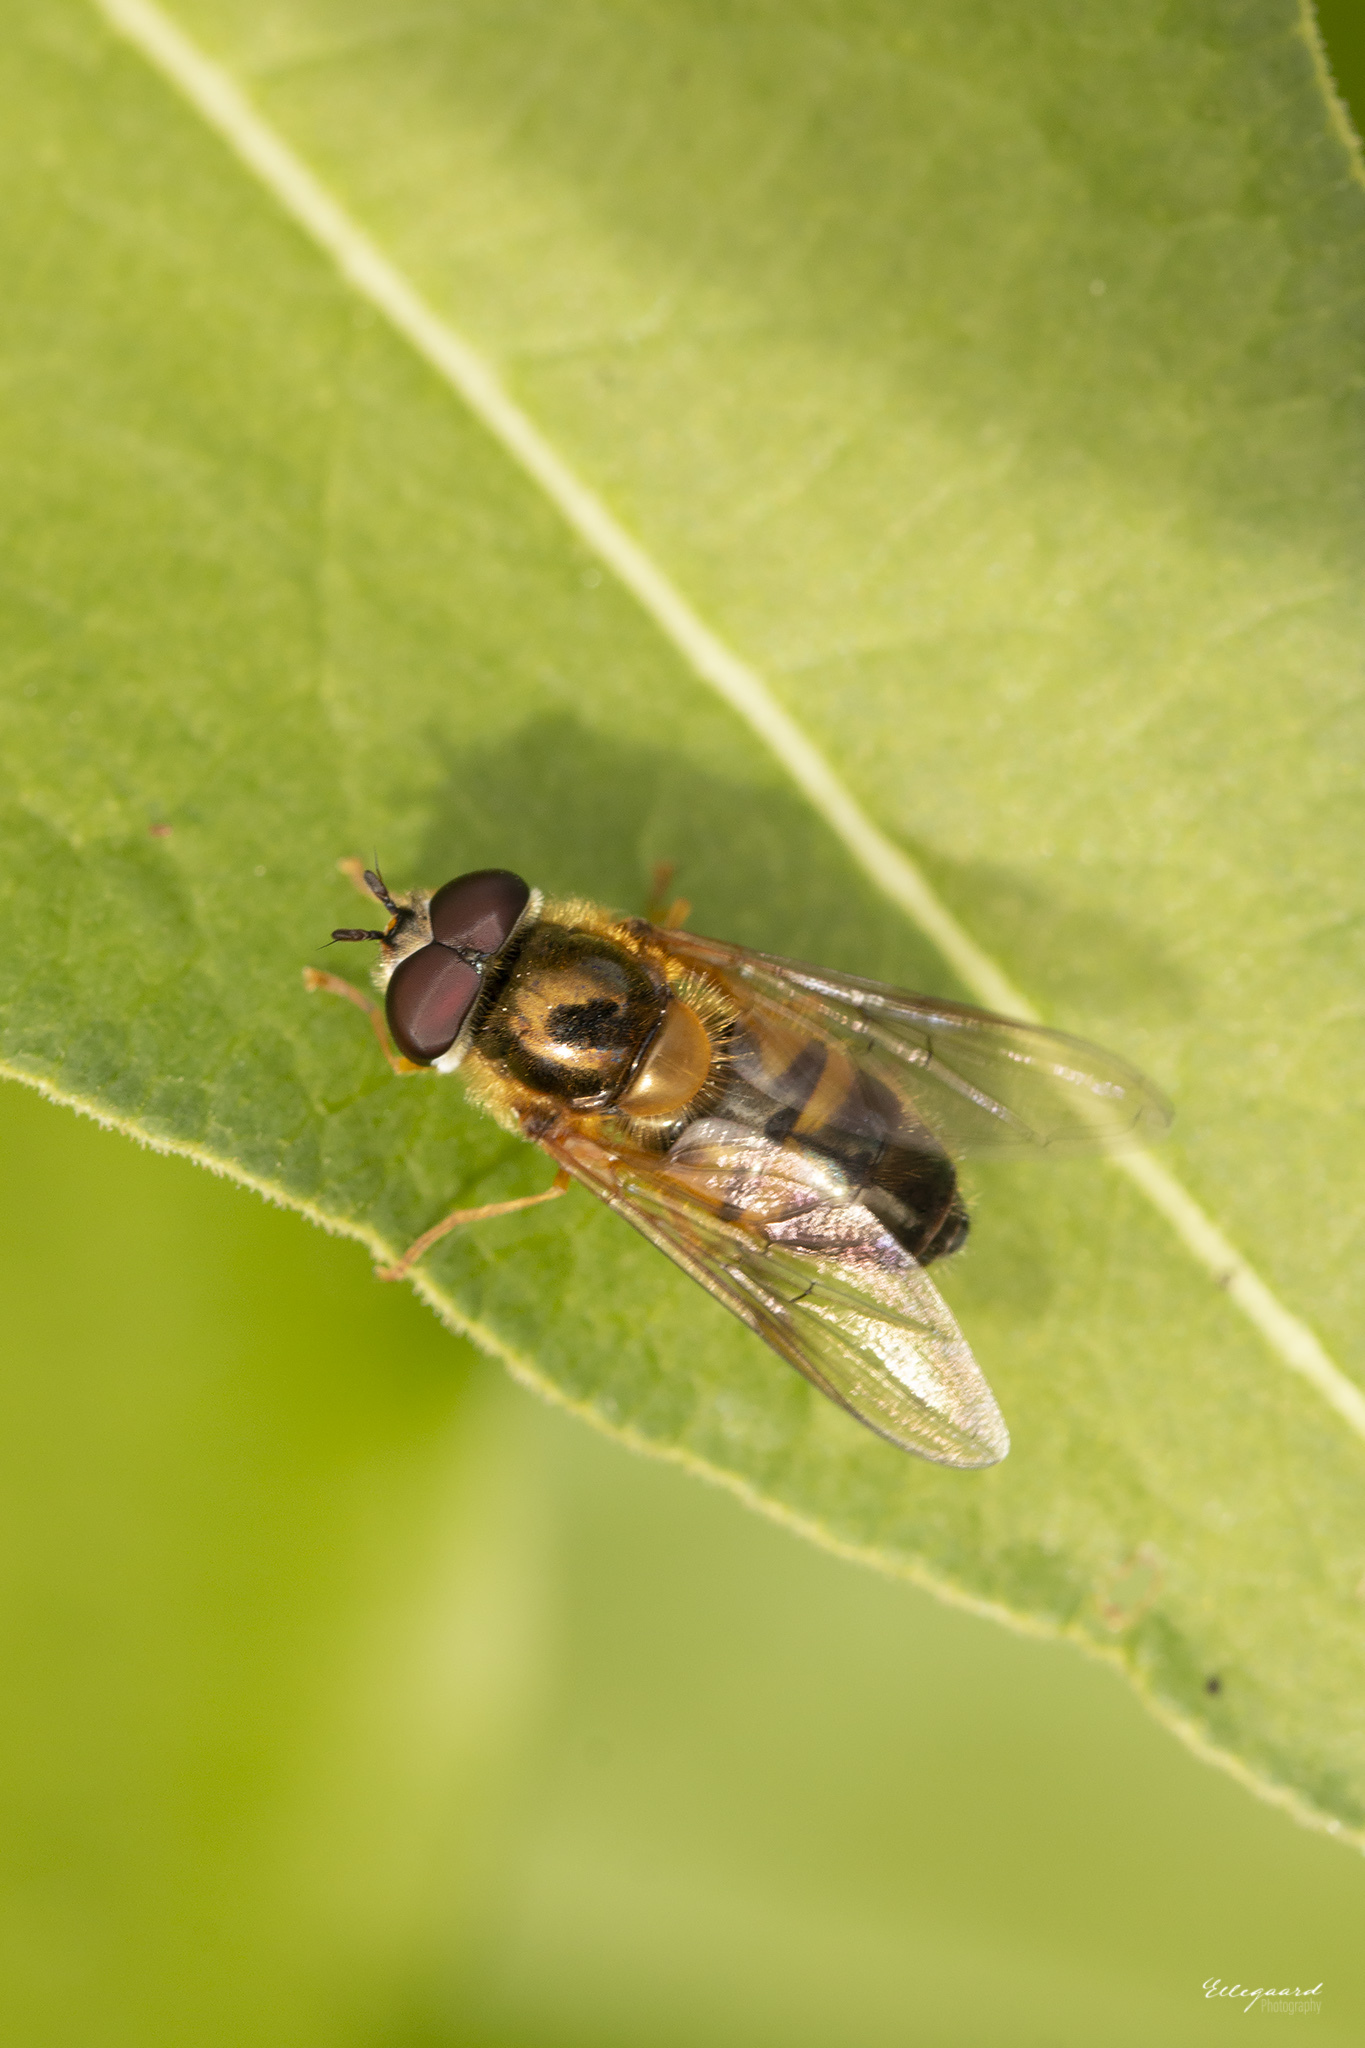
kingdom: Animalia
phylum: Arthropoda
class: Insecta
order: Diptera
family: Syrphidae
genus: Epistrophe
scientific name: Epistrophe eligans
